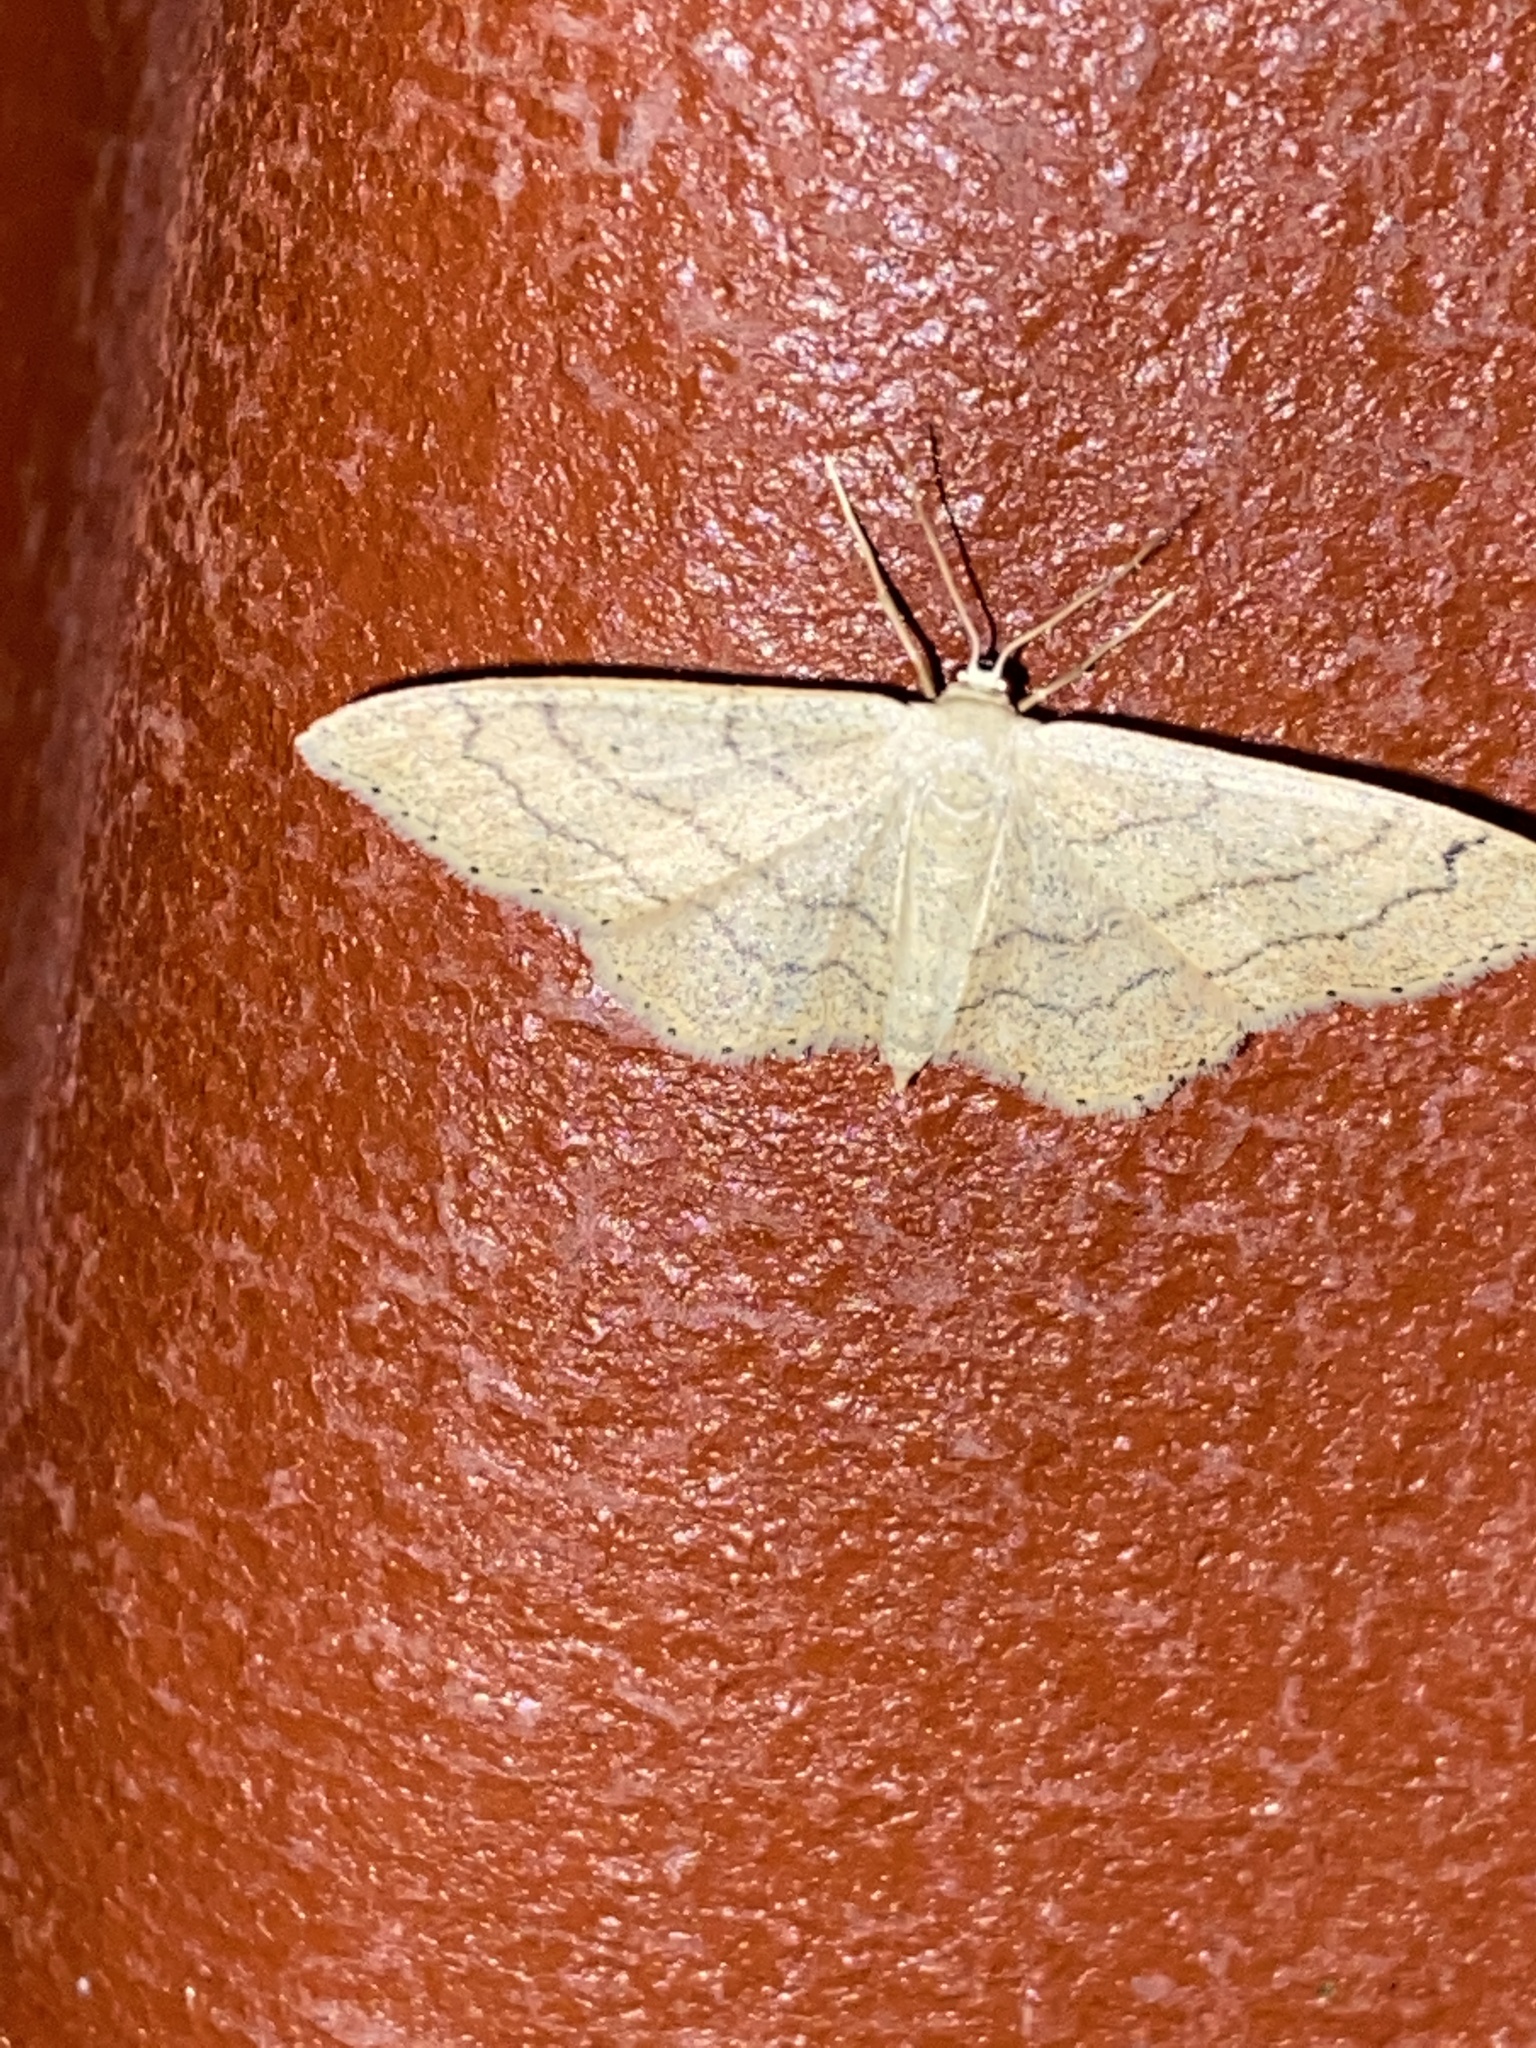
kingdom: Animalia
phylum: Arthropoda
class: Insecta
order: Lepidoptera
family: Geometridae
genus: Idaea
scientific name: Idaea aversata
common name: Riband wave
